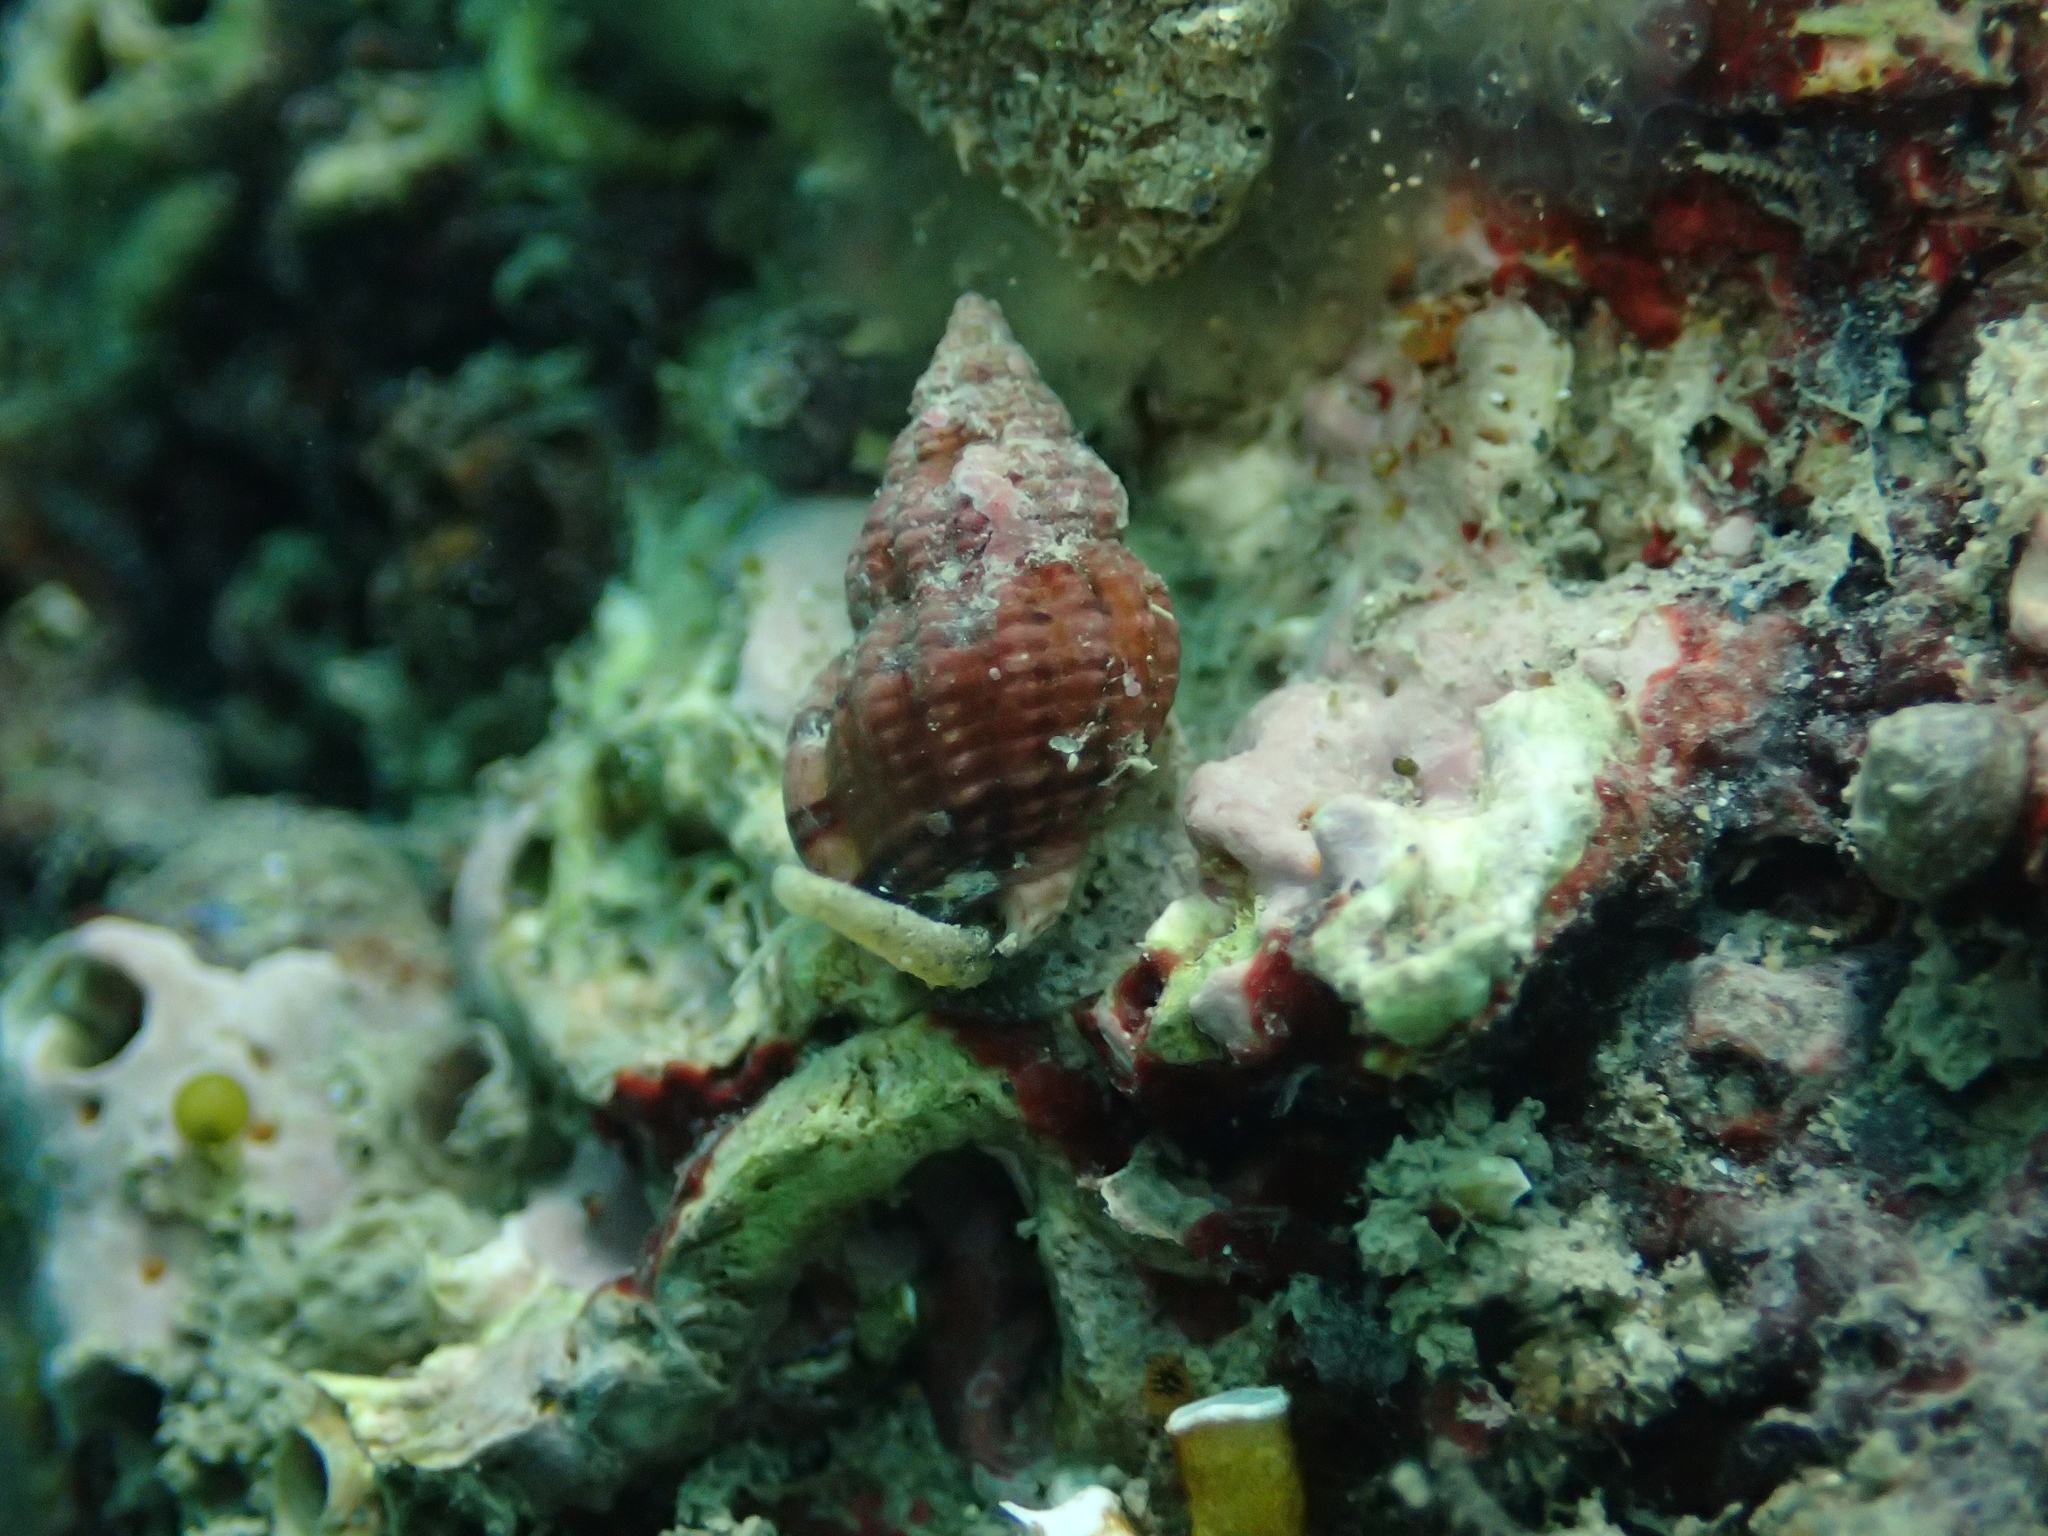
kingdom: Animalia
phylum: Mollusca
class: Gastropoda
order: Neogastropoda
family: Nassariidae
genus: Tritia
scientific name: Tritia incrassata
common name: Thick-lipped dog whelk
